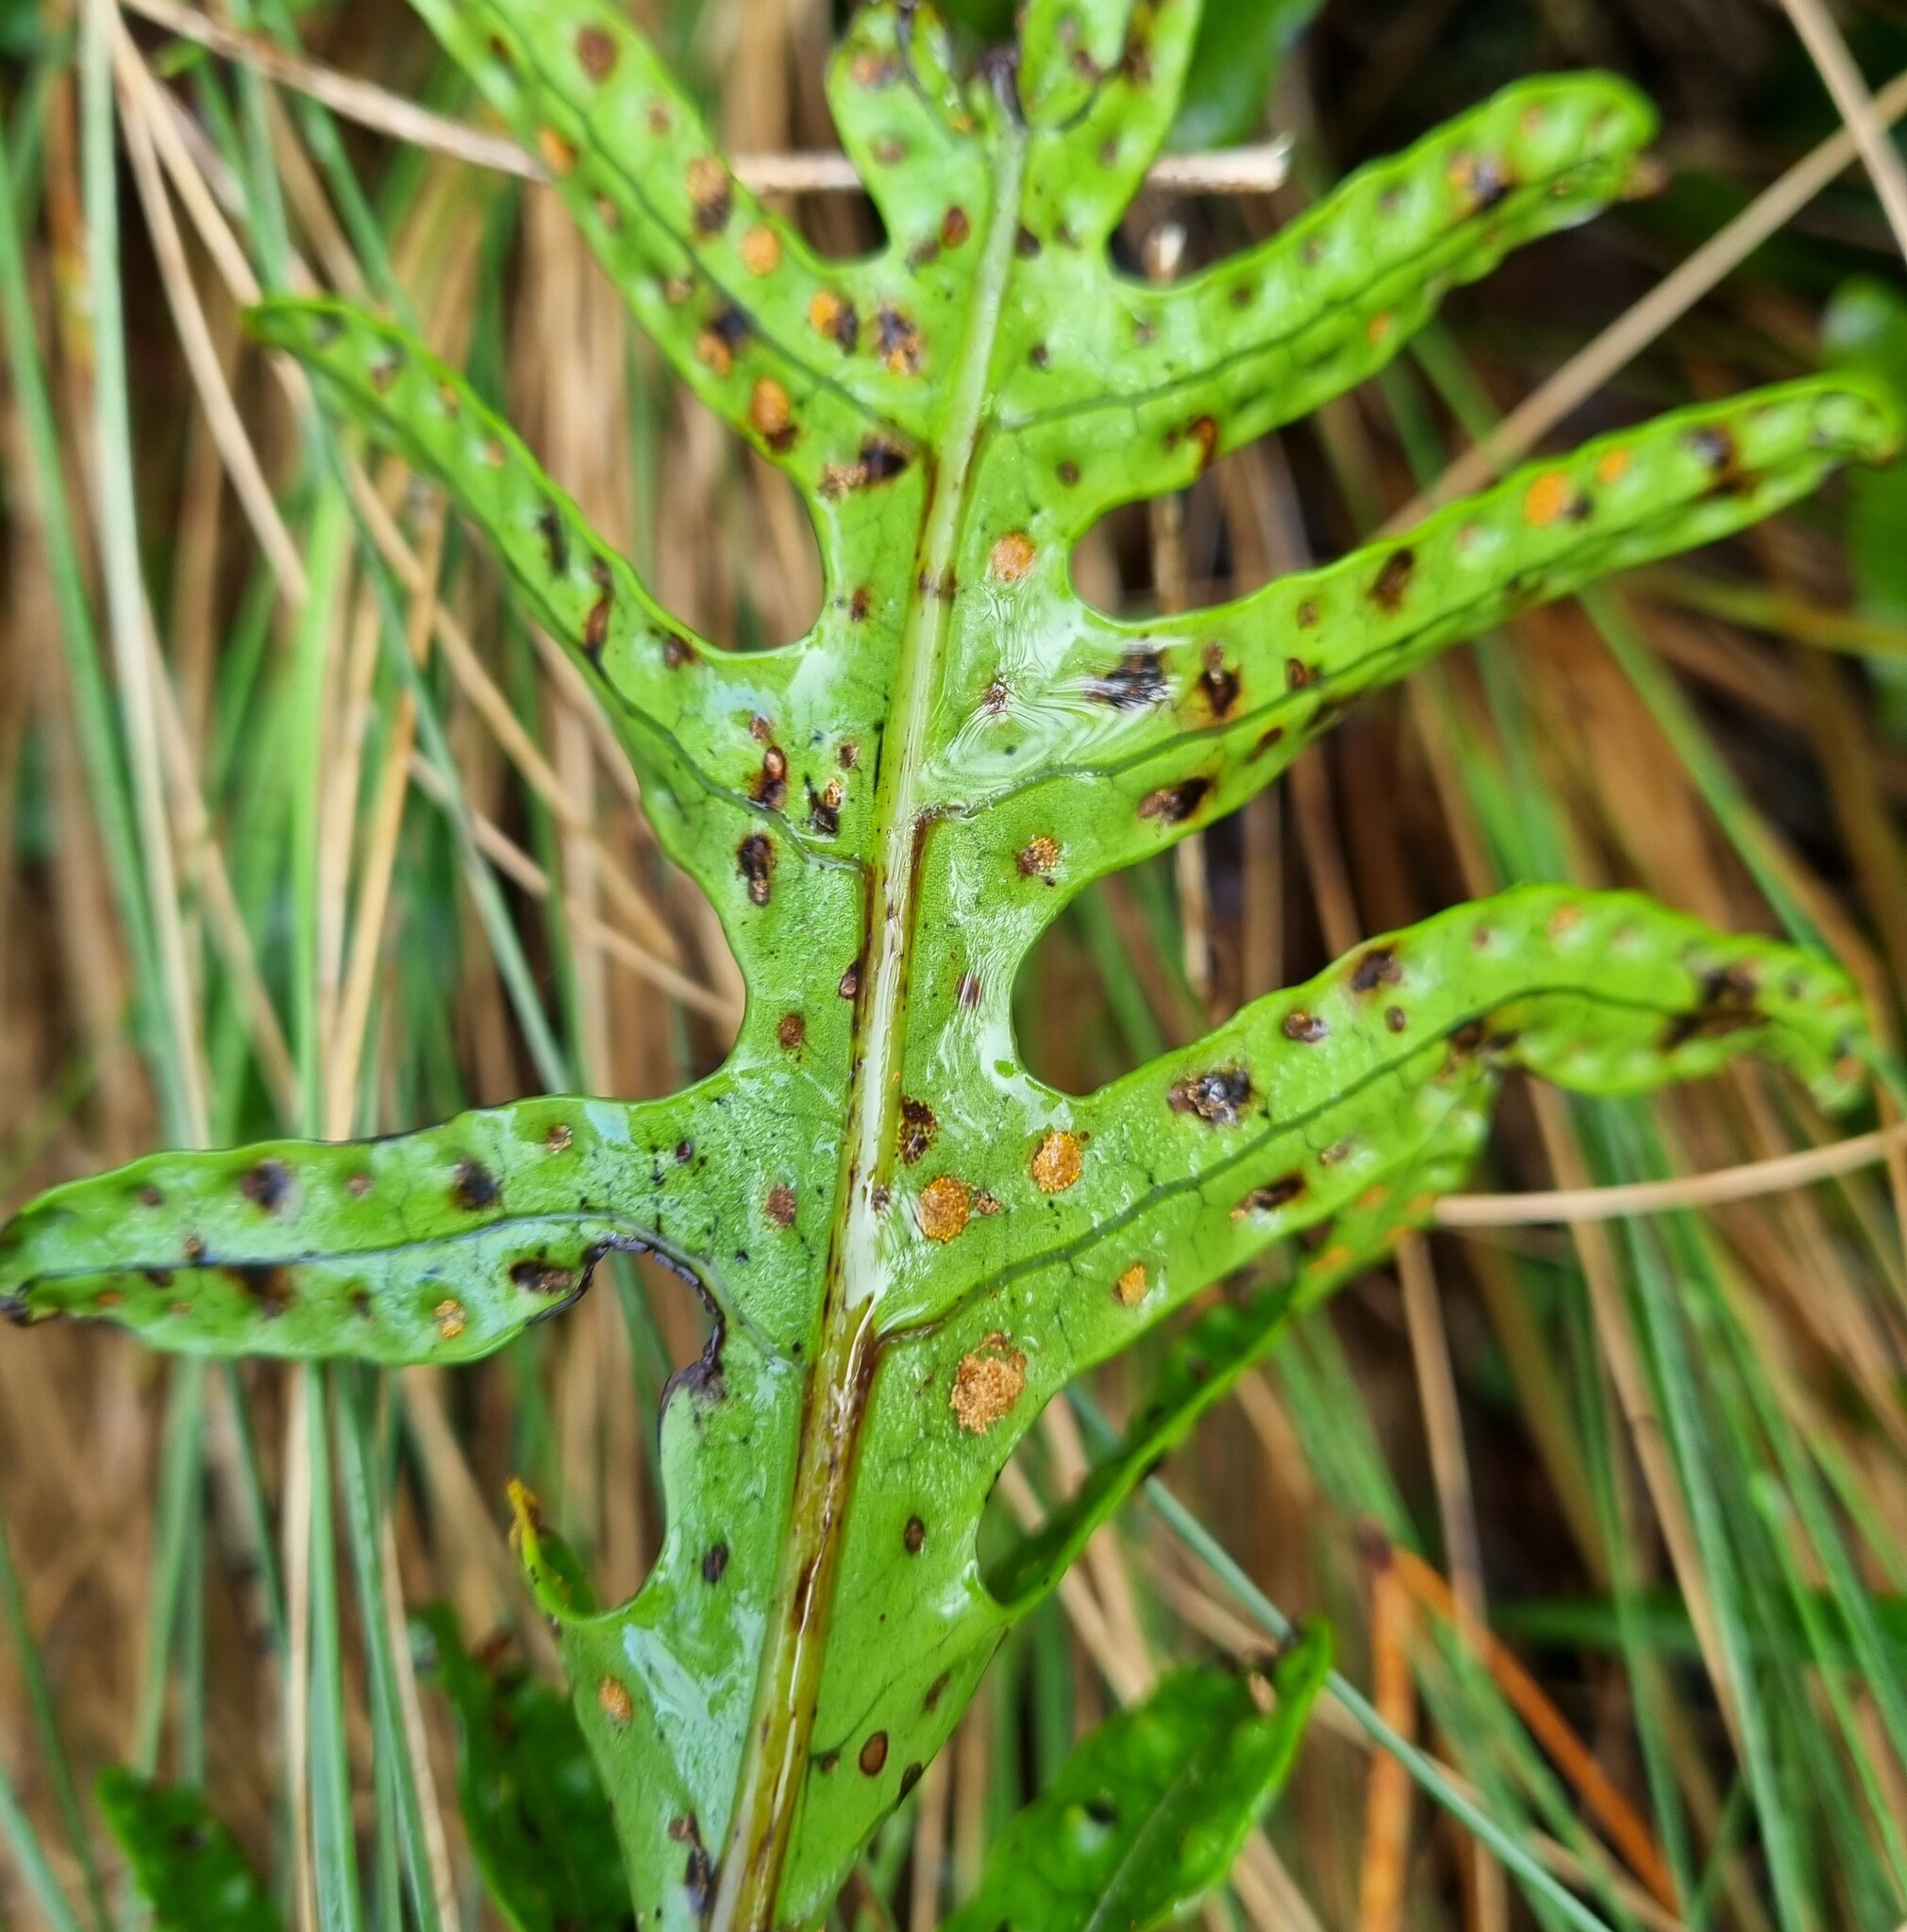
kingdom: Plantae
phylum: Tracheophyta
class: Polypodiopsida
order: Polypodiales
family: Polypodiaceae
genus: Lecanopteris
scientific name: Lecanopteris pustulata
